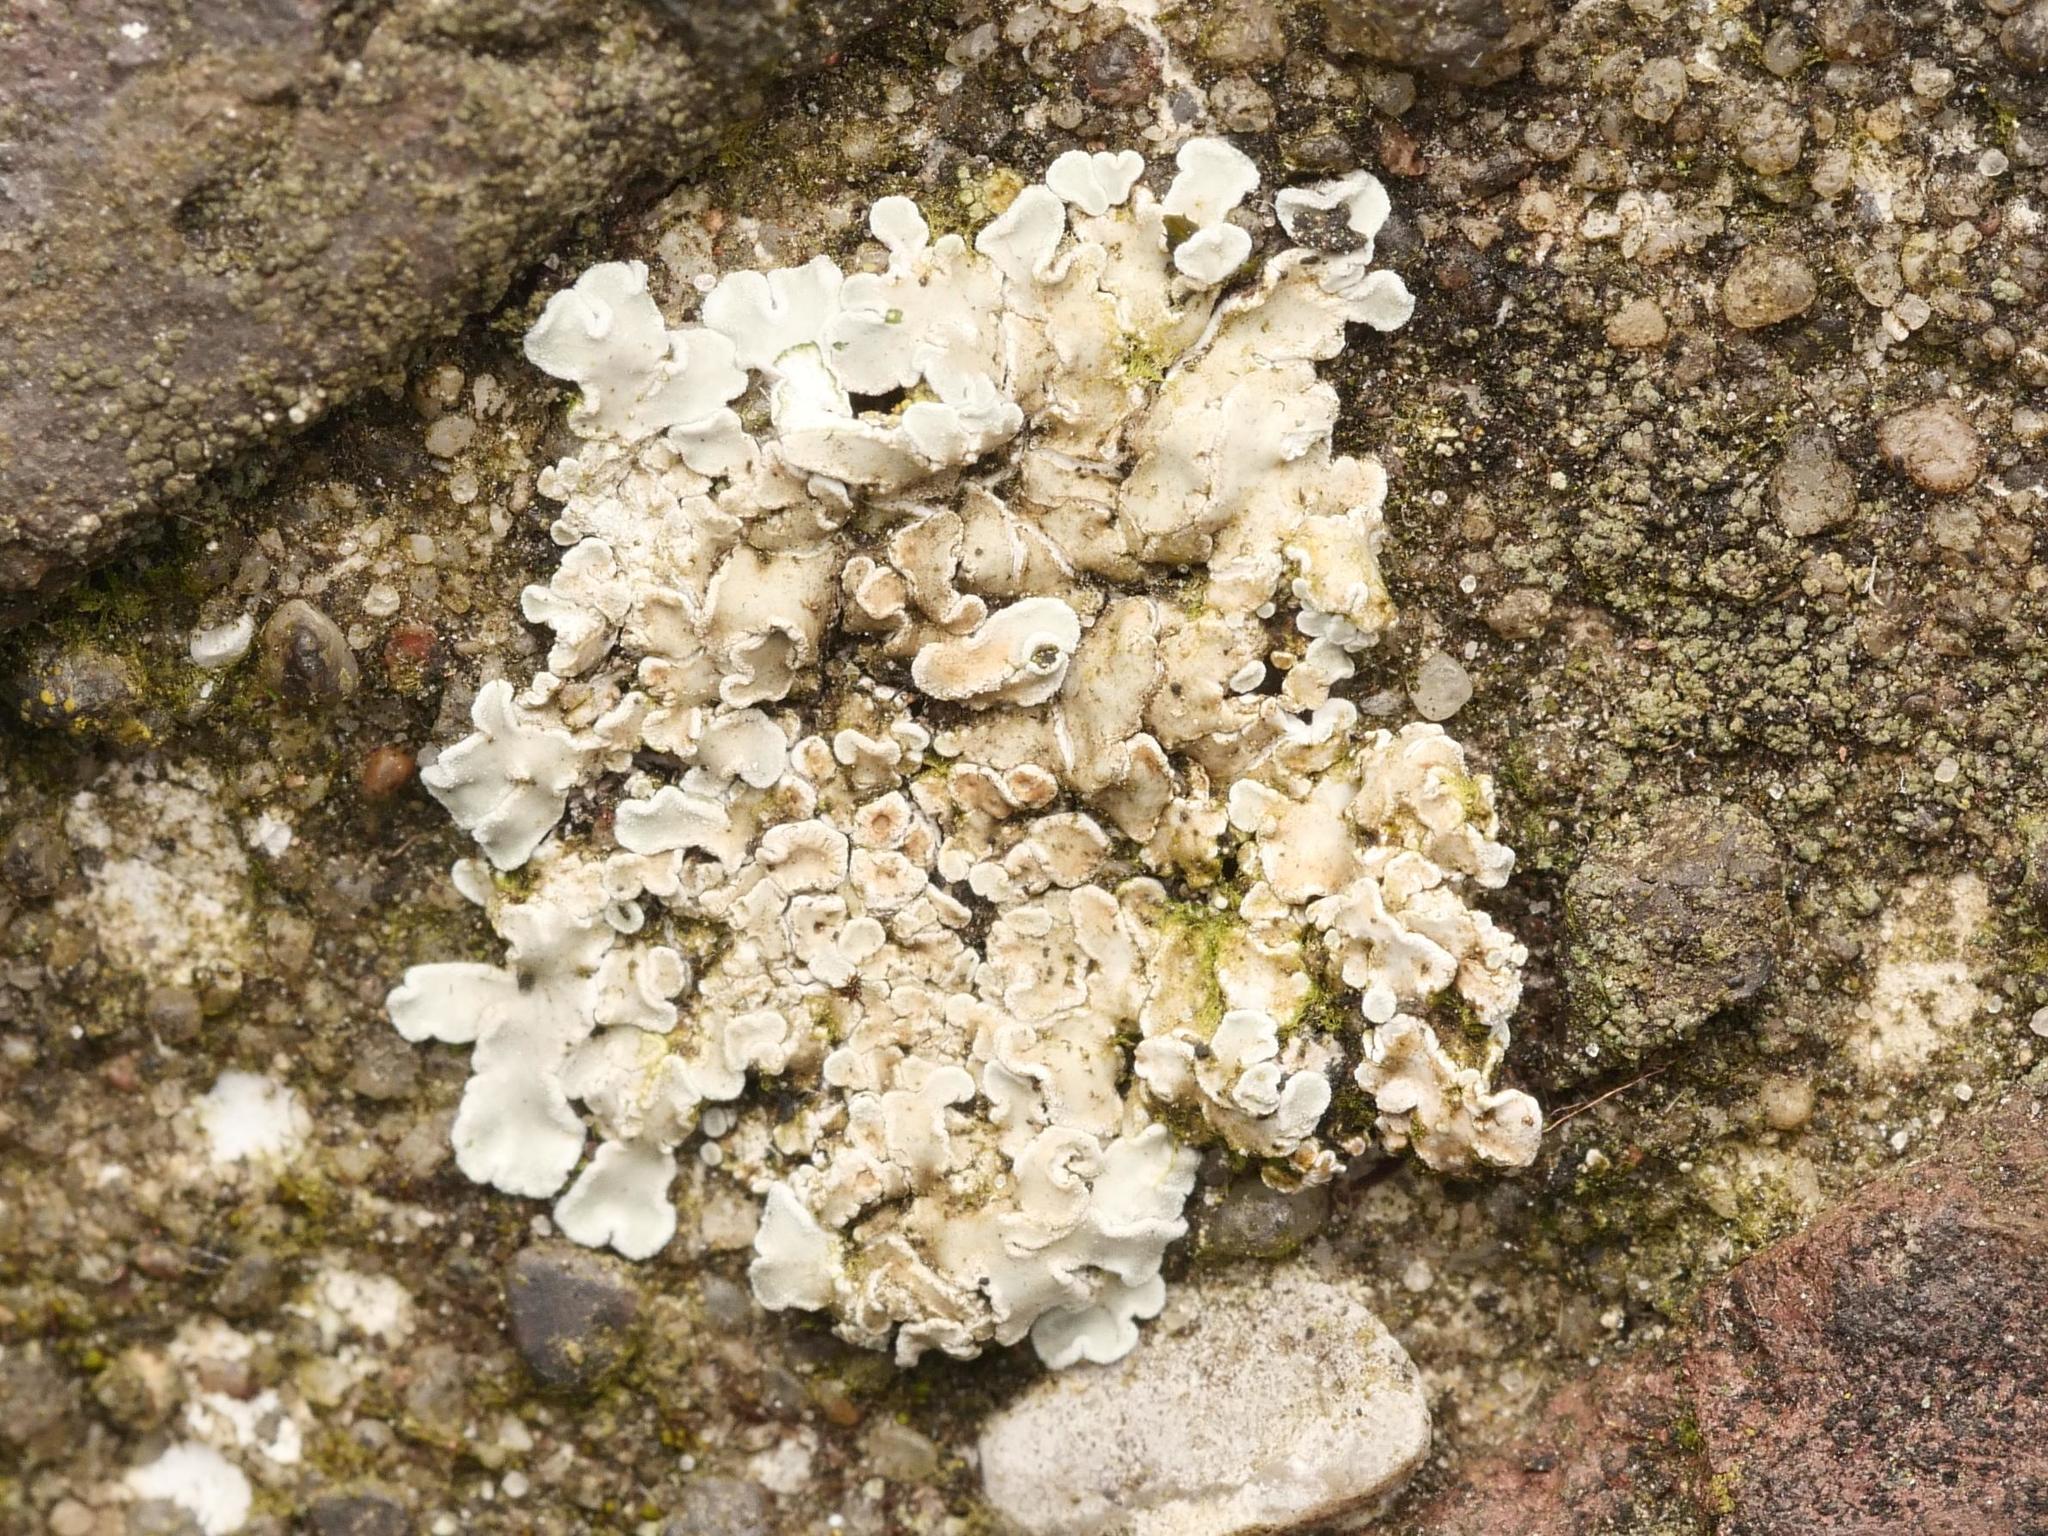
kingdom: Fungi
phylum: Ascomycota
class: Lecanoromycetes
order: Lecanorales
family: Lecanoraceae
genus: Protoparmeliopsis
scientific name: Protoparmeliopsis muralis
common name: Stonewall rim lichen
